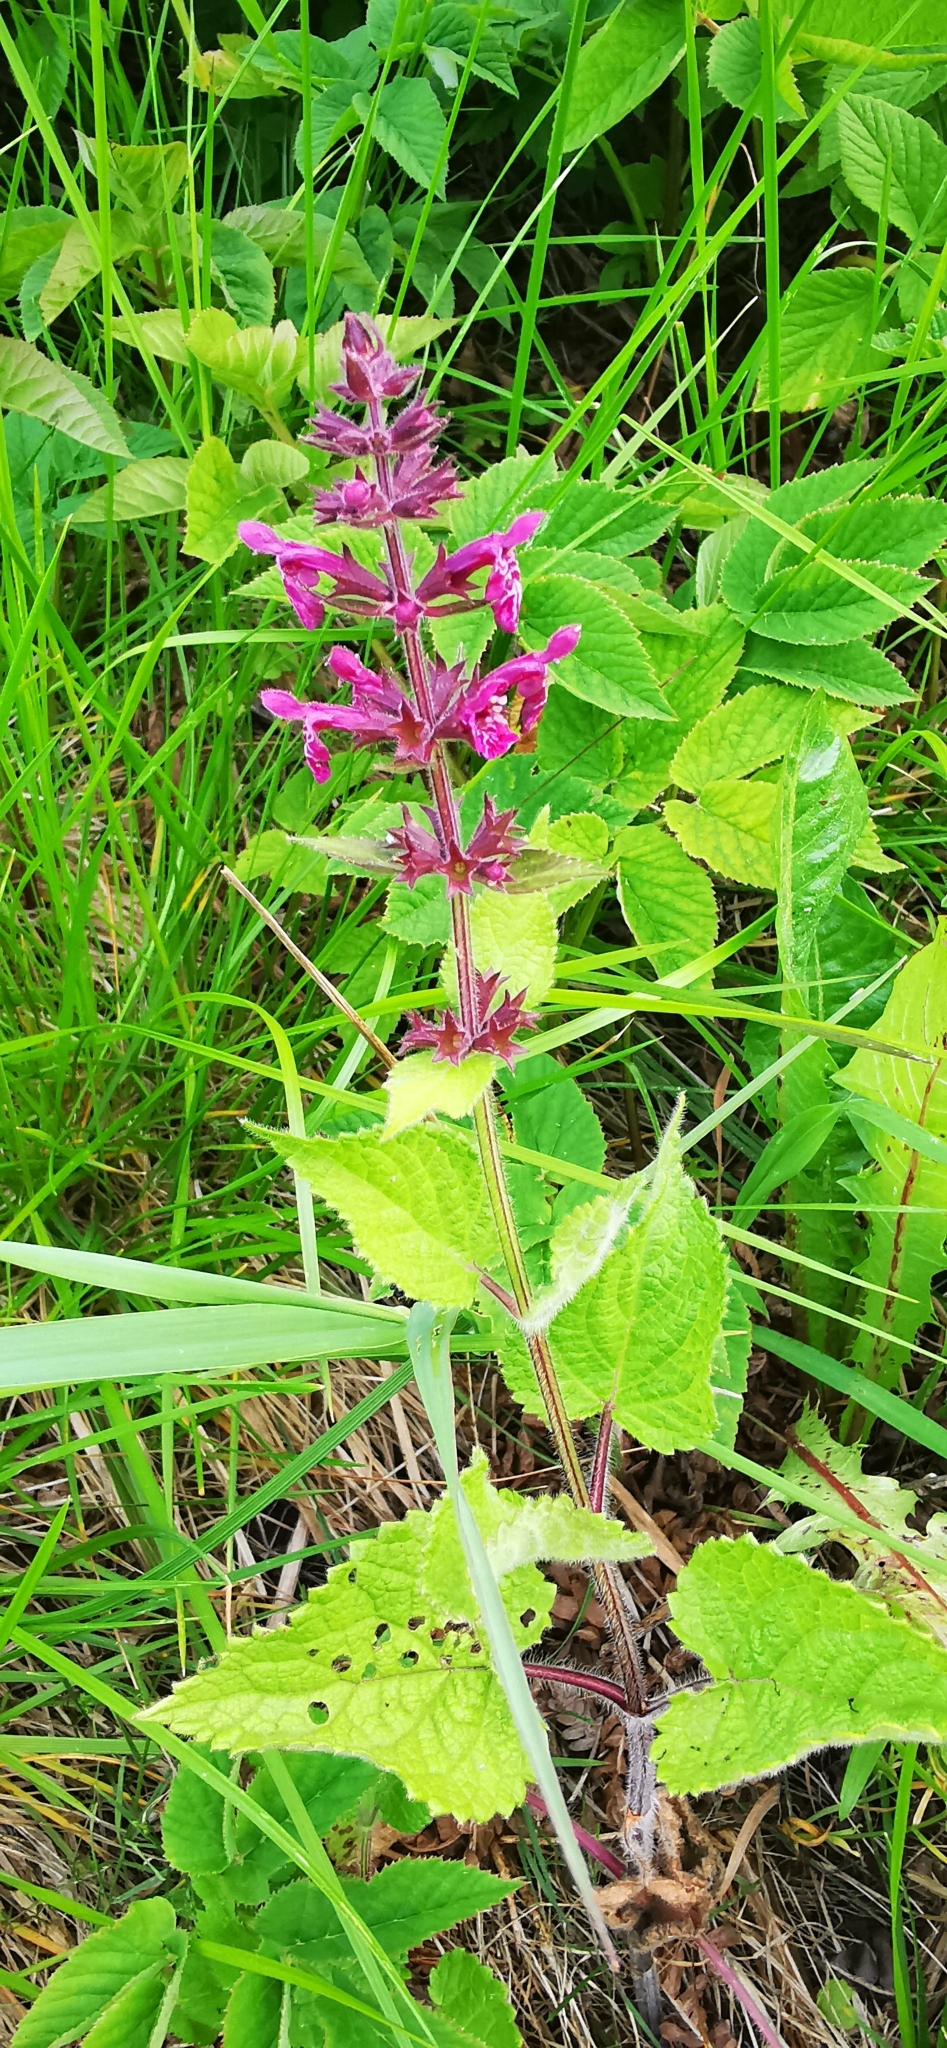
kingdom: Plantae
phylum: Tracheophyta
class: Magnoliopsida
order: Lamiales
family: Lamiaceae
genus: Stachys
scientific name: Stachys sylvatica
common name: Hedge woundwort
